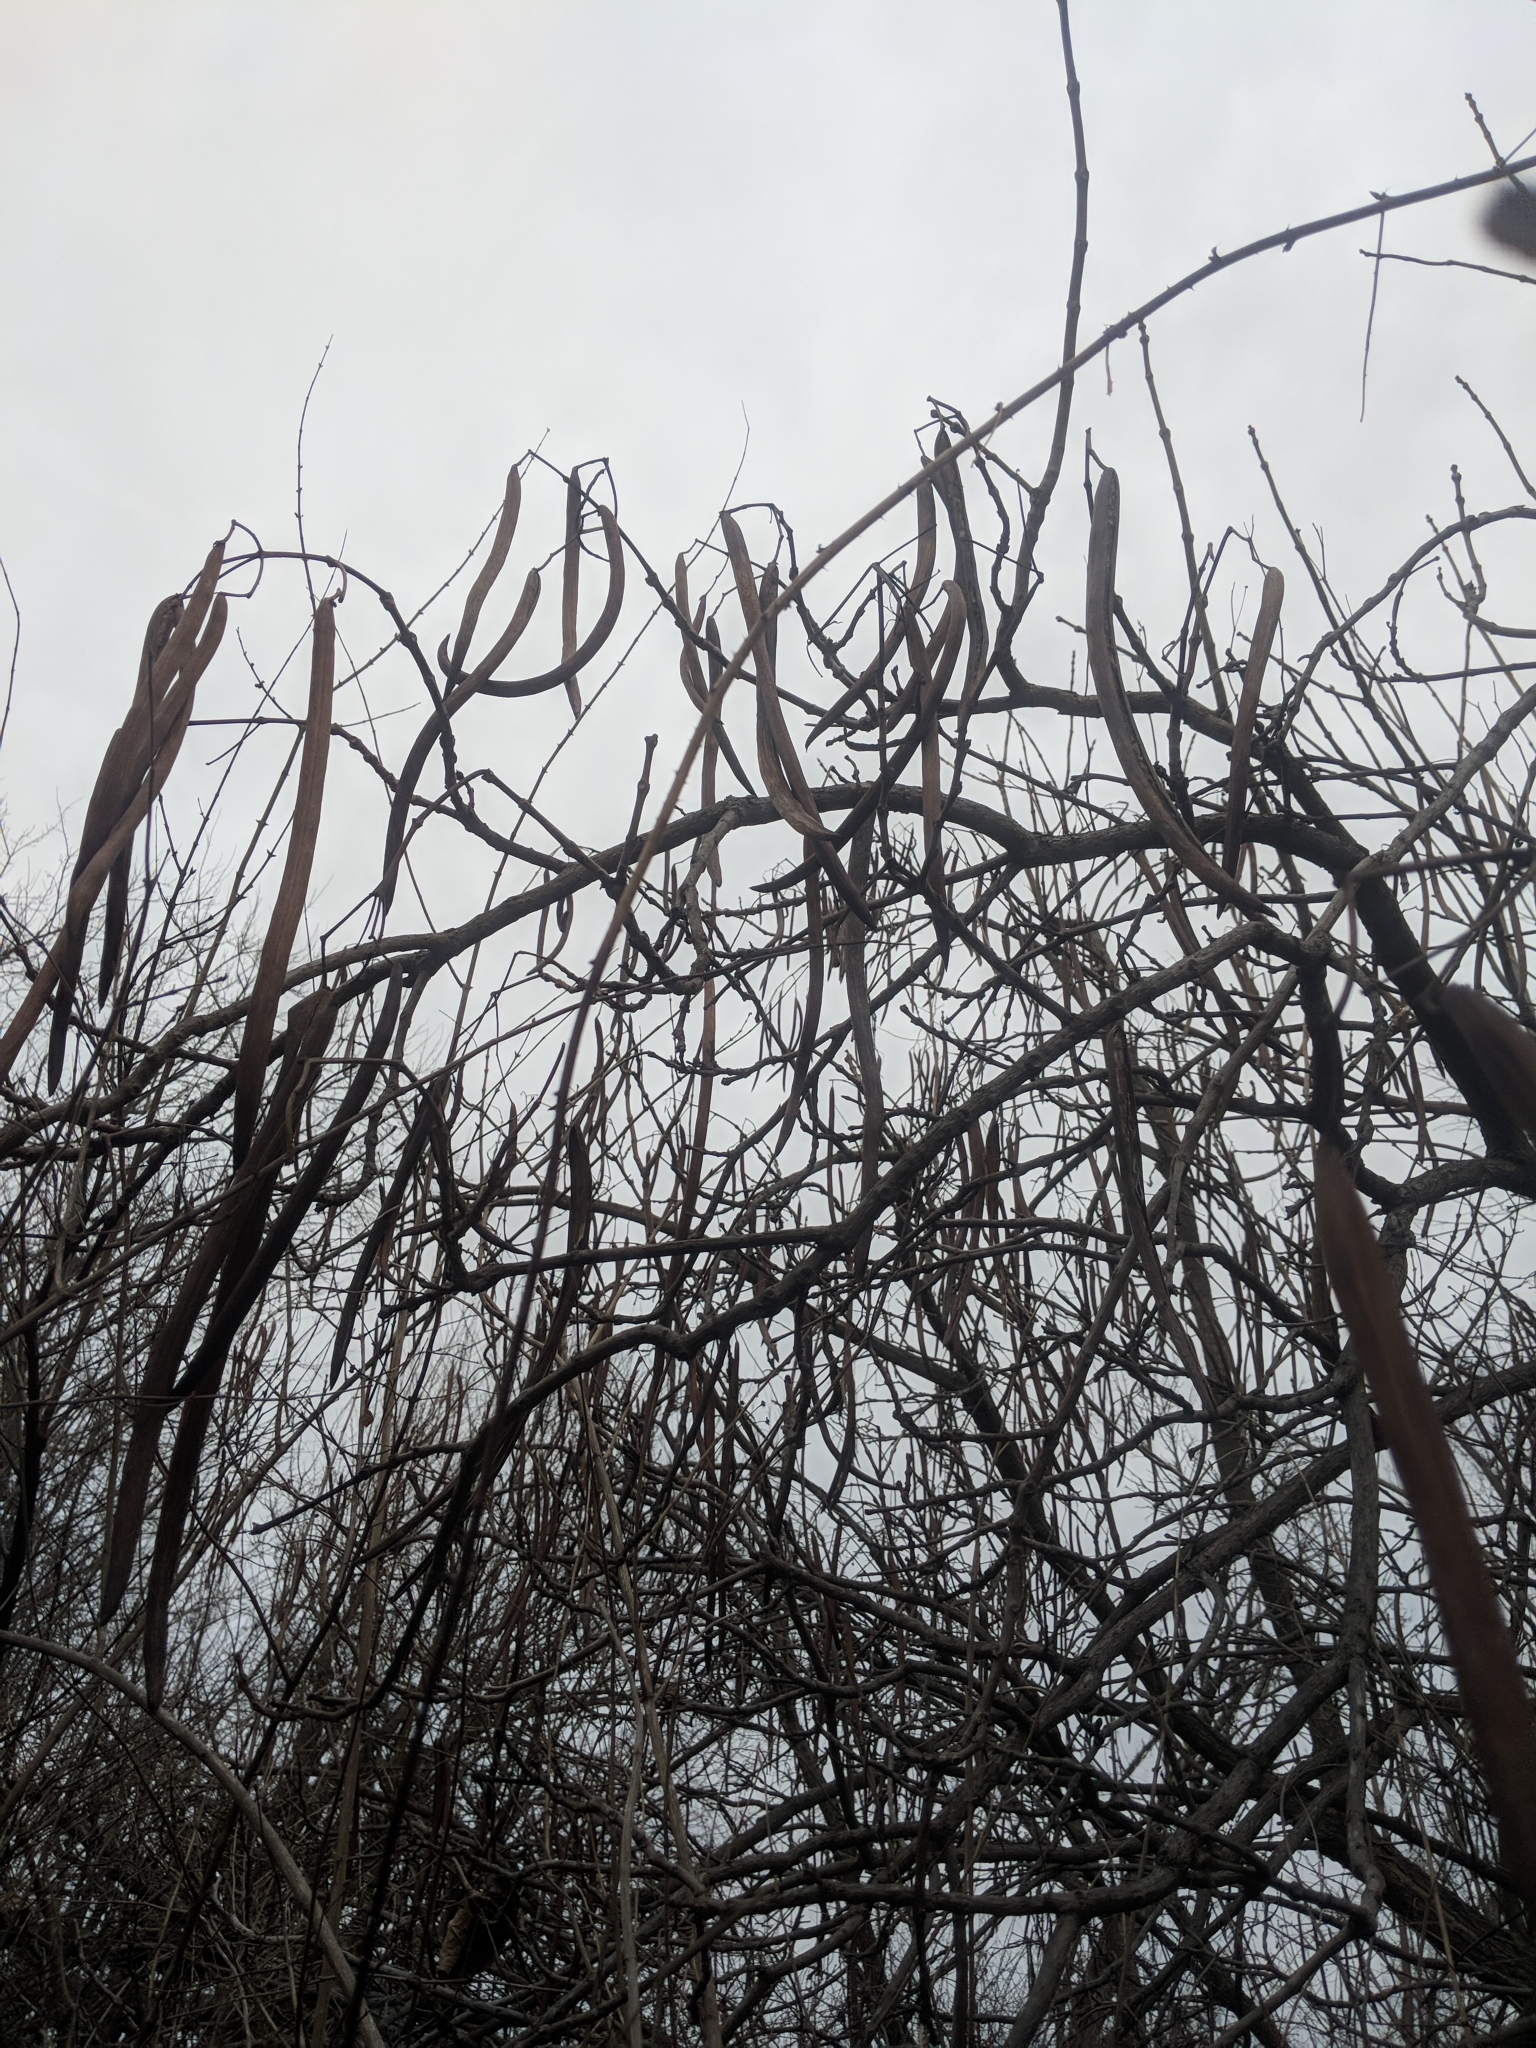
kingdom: Plantae
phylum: Tracheophyta
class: Magnoliopsida
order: Lamiales
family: Bignoniaceae
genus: Catalpa
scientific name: Catalpa speciosa
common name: Northern catalpa
